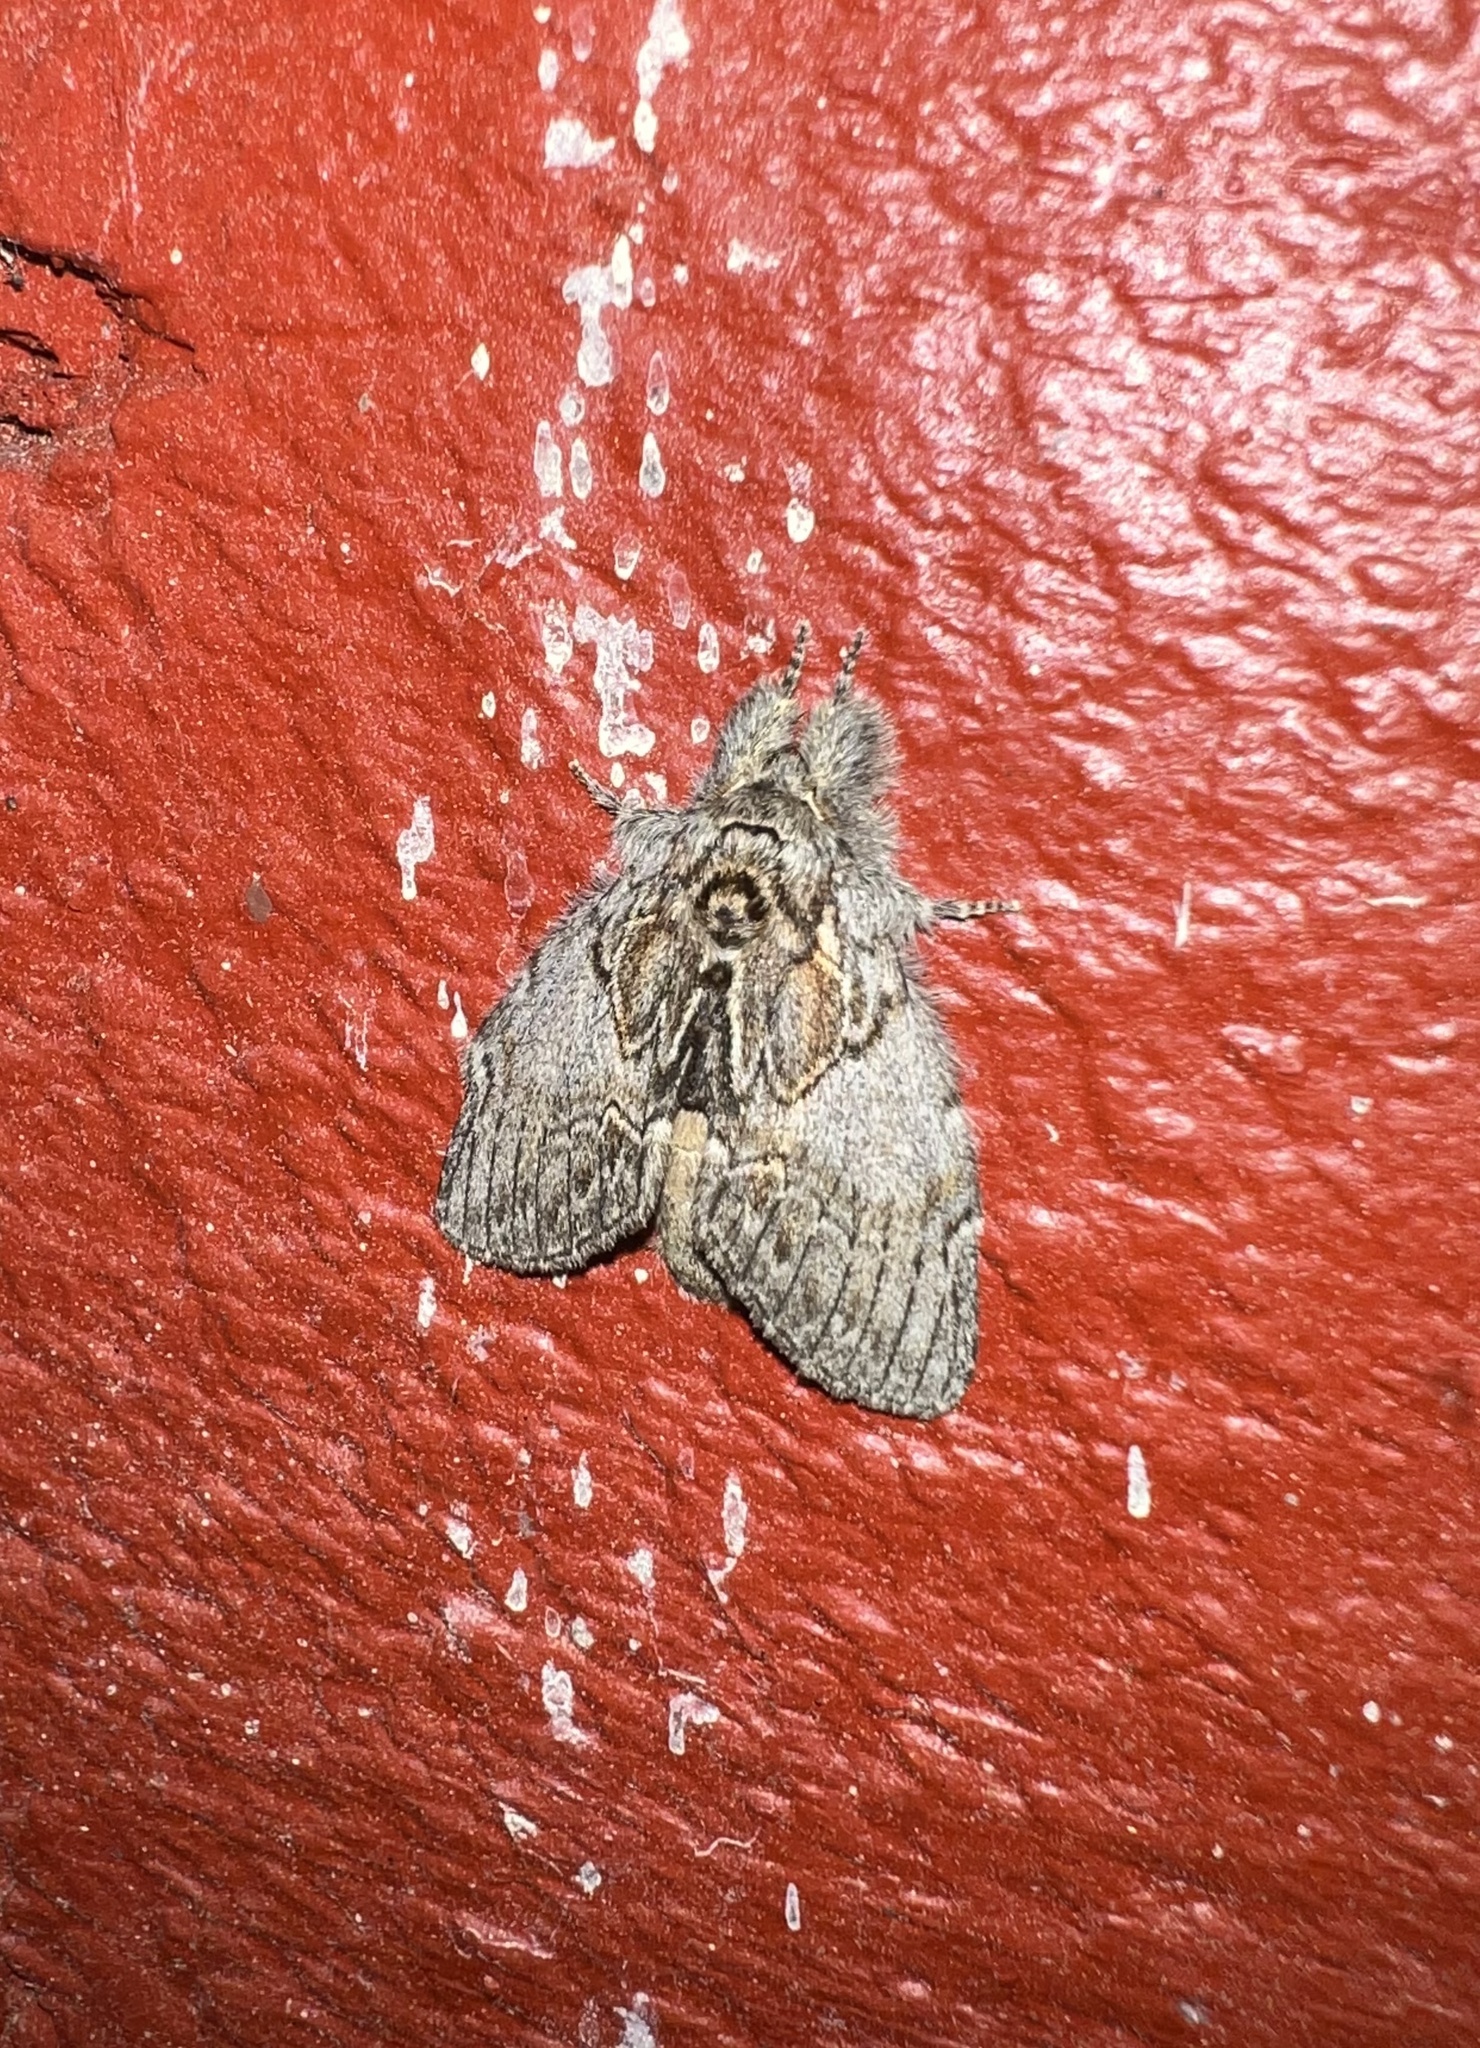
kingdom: Animalia
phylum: Arthropoda
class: Insecta
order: Lepidoptera
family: Notodontidae
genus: Peridea
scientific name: Peridea basitriens
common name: Oval-based prominent
